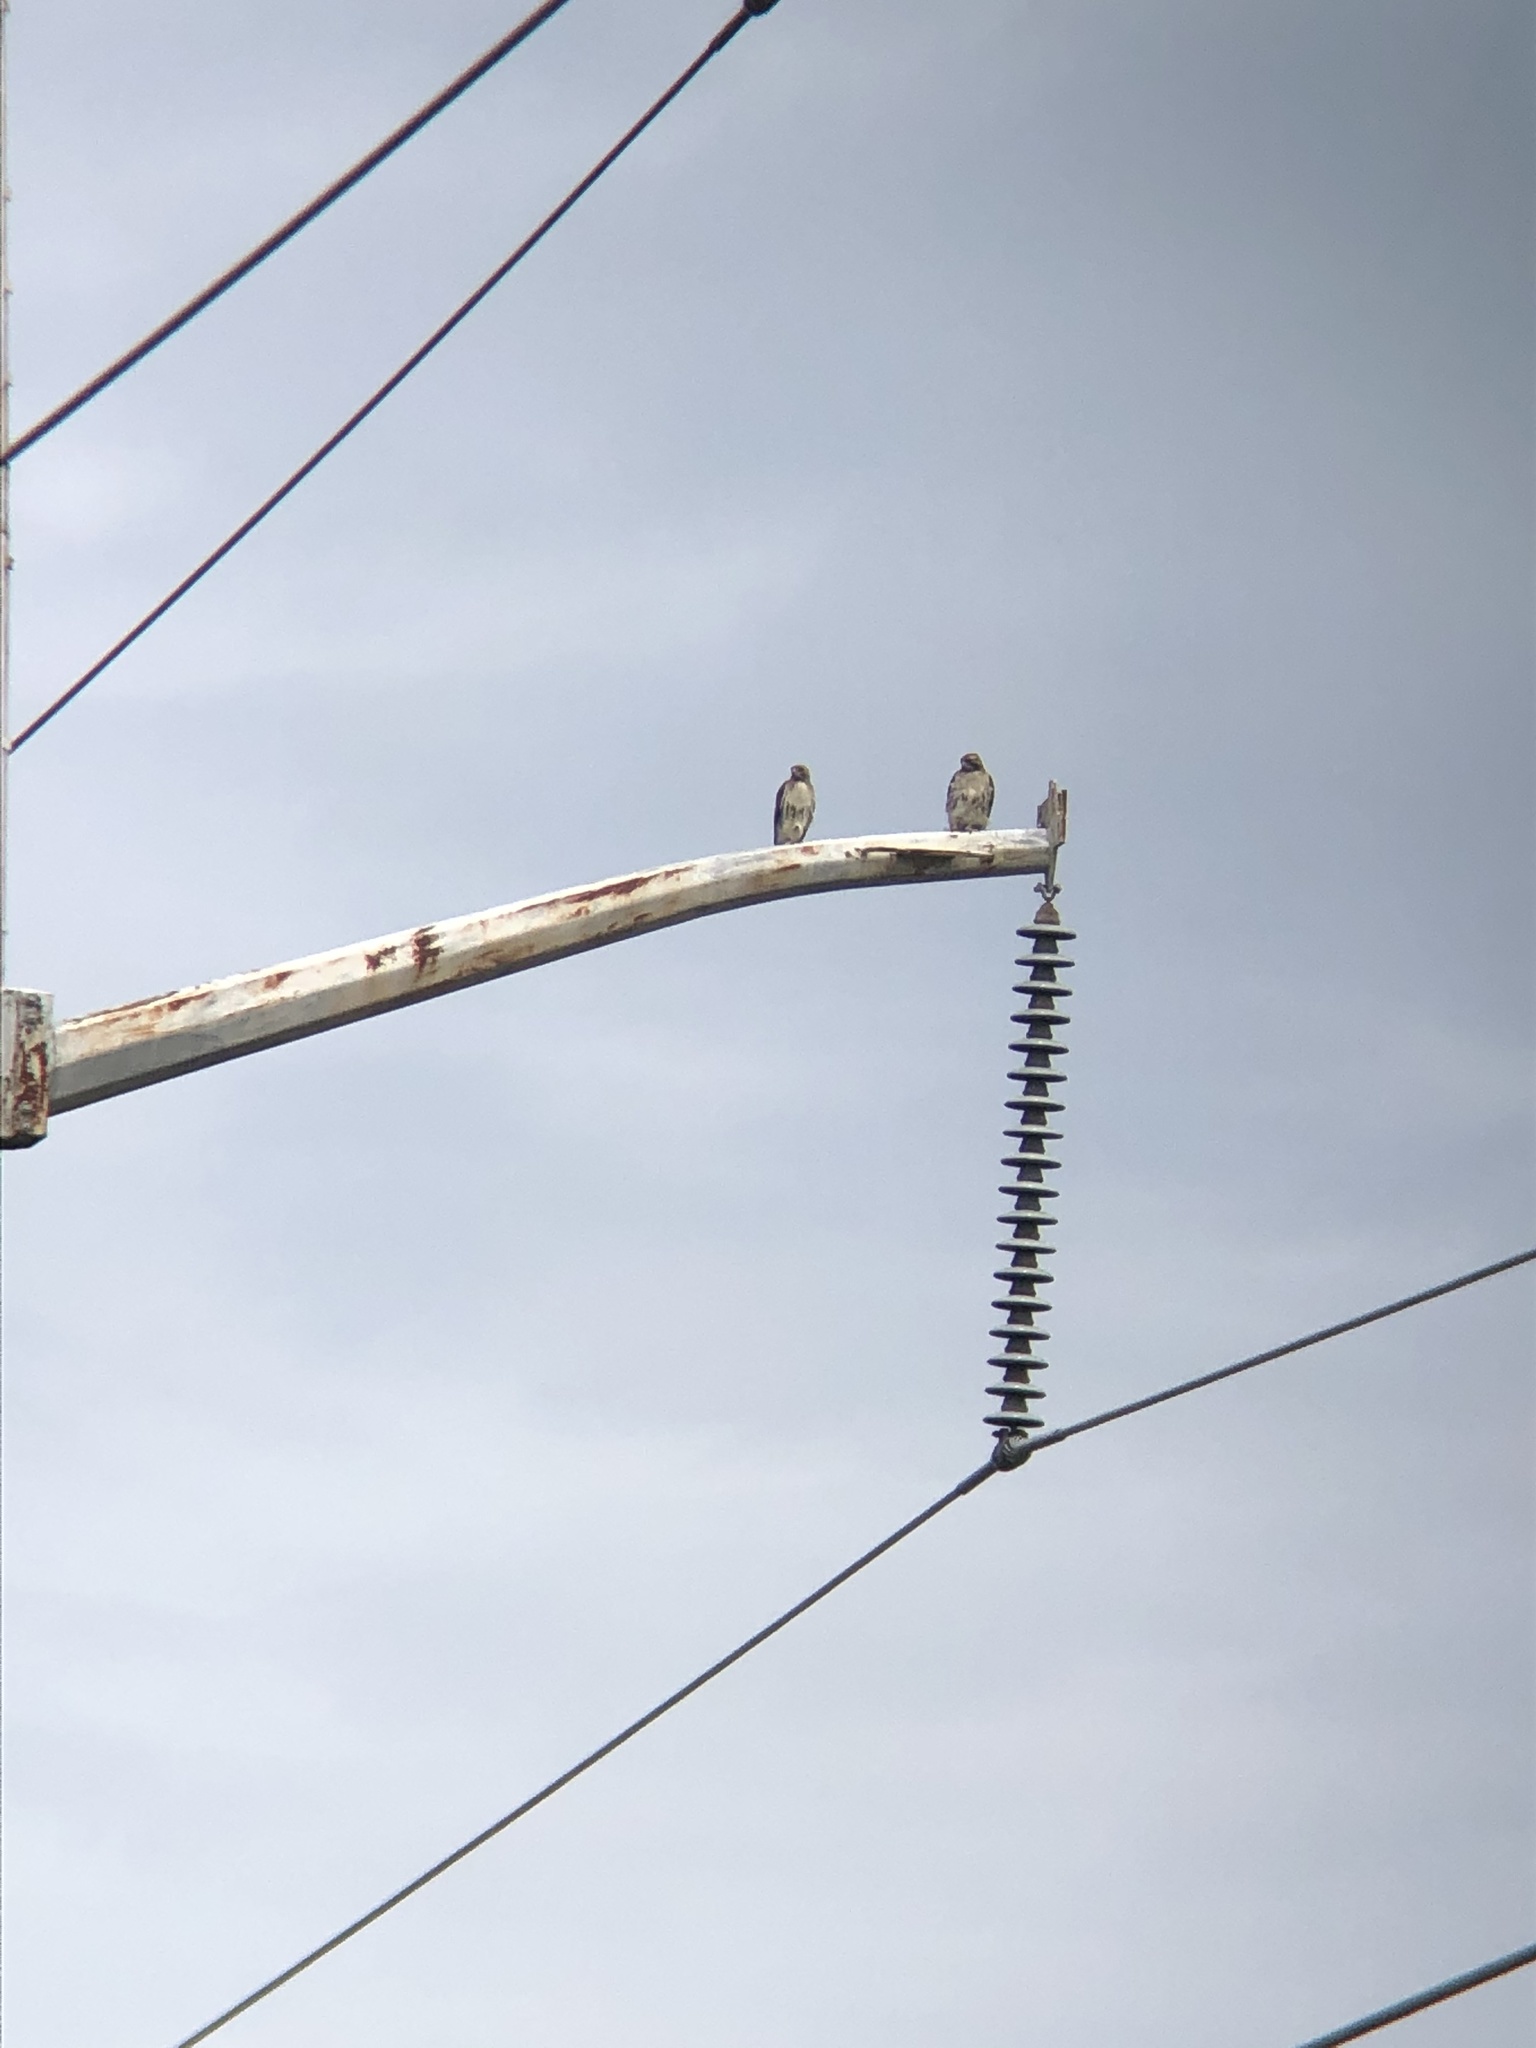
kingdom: Animalia
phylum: Chordata
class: Aves
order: Accipitriformes
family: Accipitridae
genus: Buteo
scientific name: Buteo jamaicensis
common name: Red-tailed hawk
